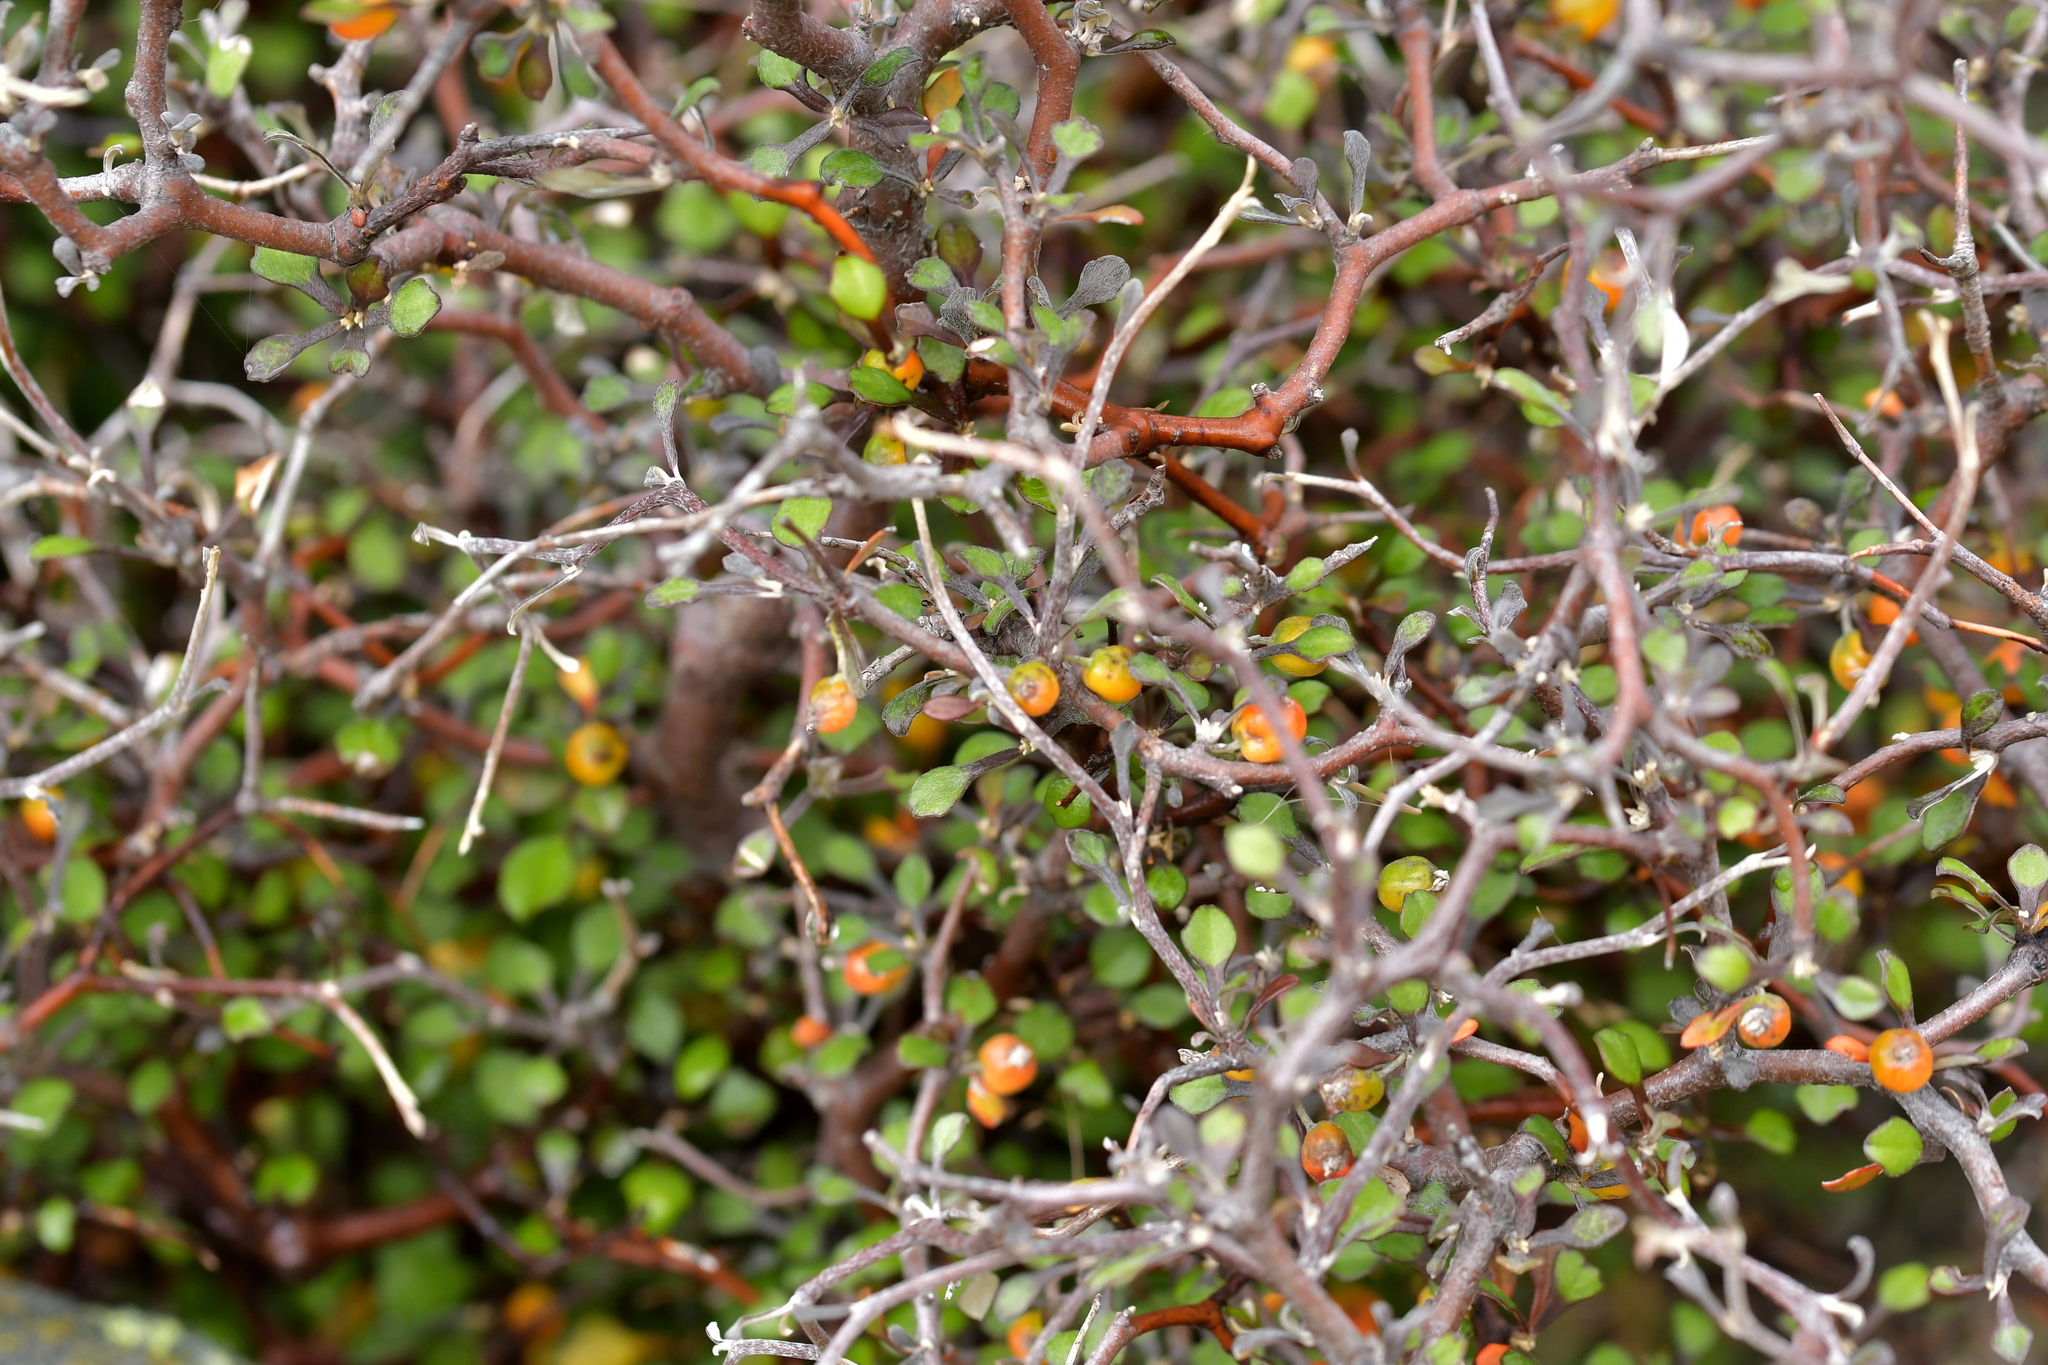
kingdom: Plantae
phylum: Tracheophyta
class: Magnoliopsida
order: Asterales
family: Argophyllaceae
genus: Corokia
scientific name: Corokia cotoneaster
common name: Wire nettingbush
